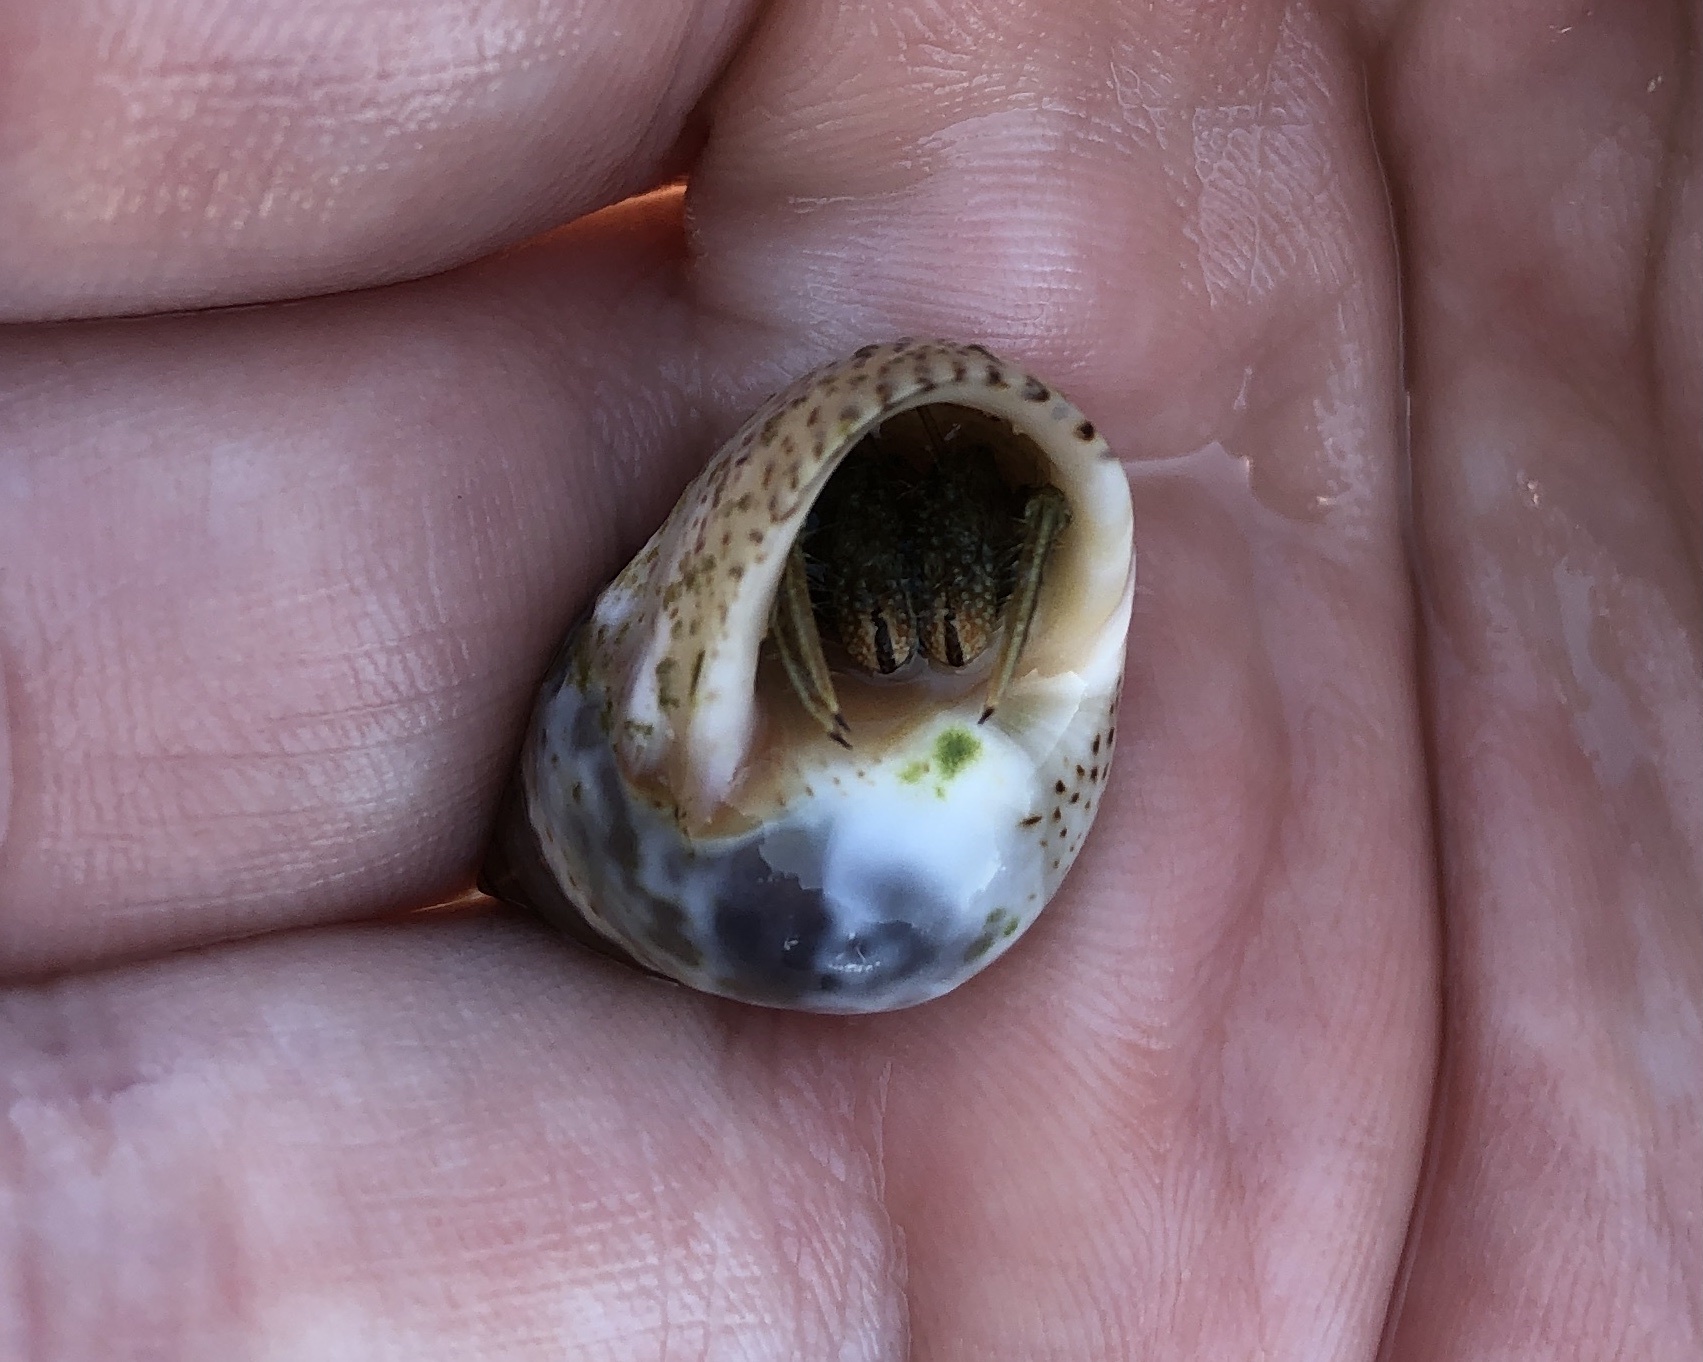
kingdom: Animalia
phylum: Arthropoda
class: Malacostraca
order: Decapoda
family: Diogenidae
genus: Clibanarius
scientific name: Clibanarius vittatus
